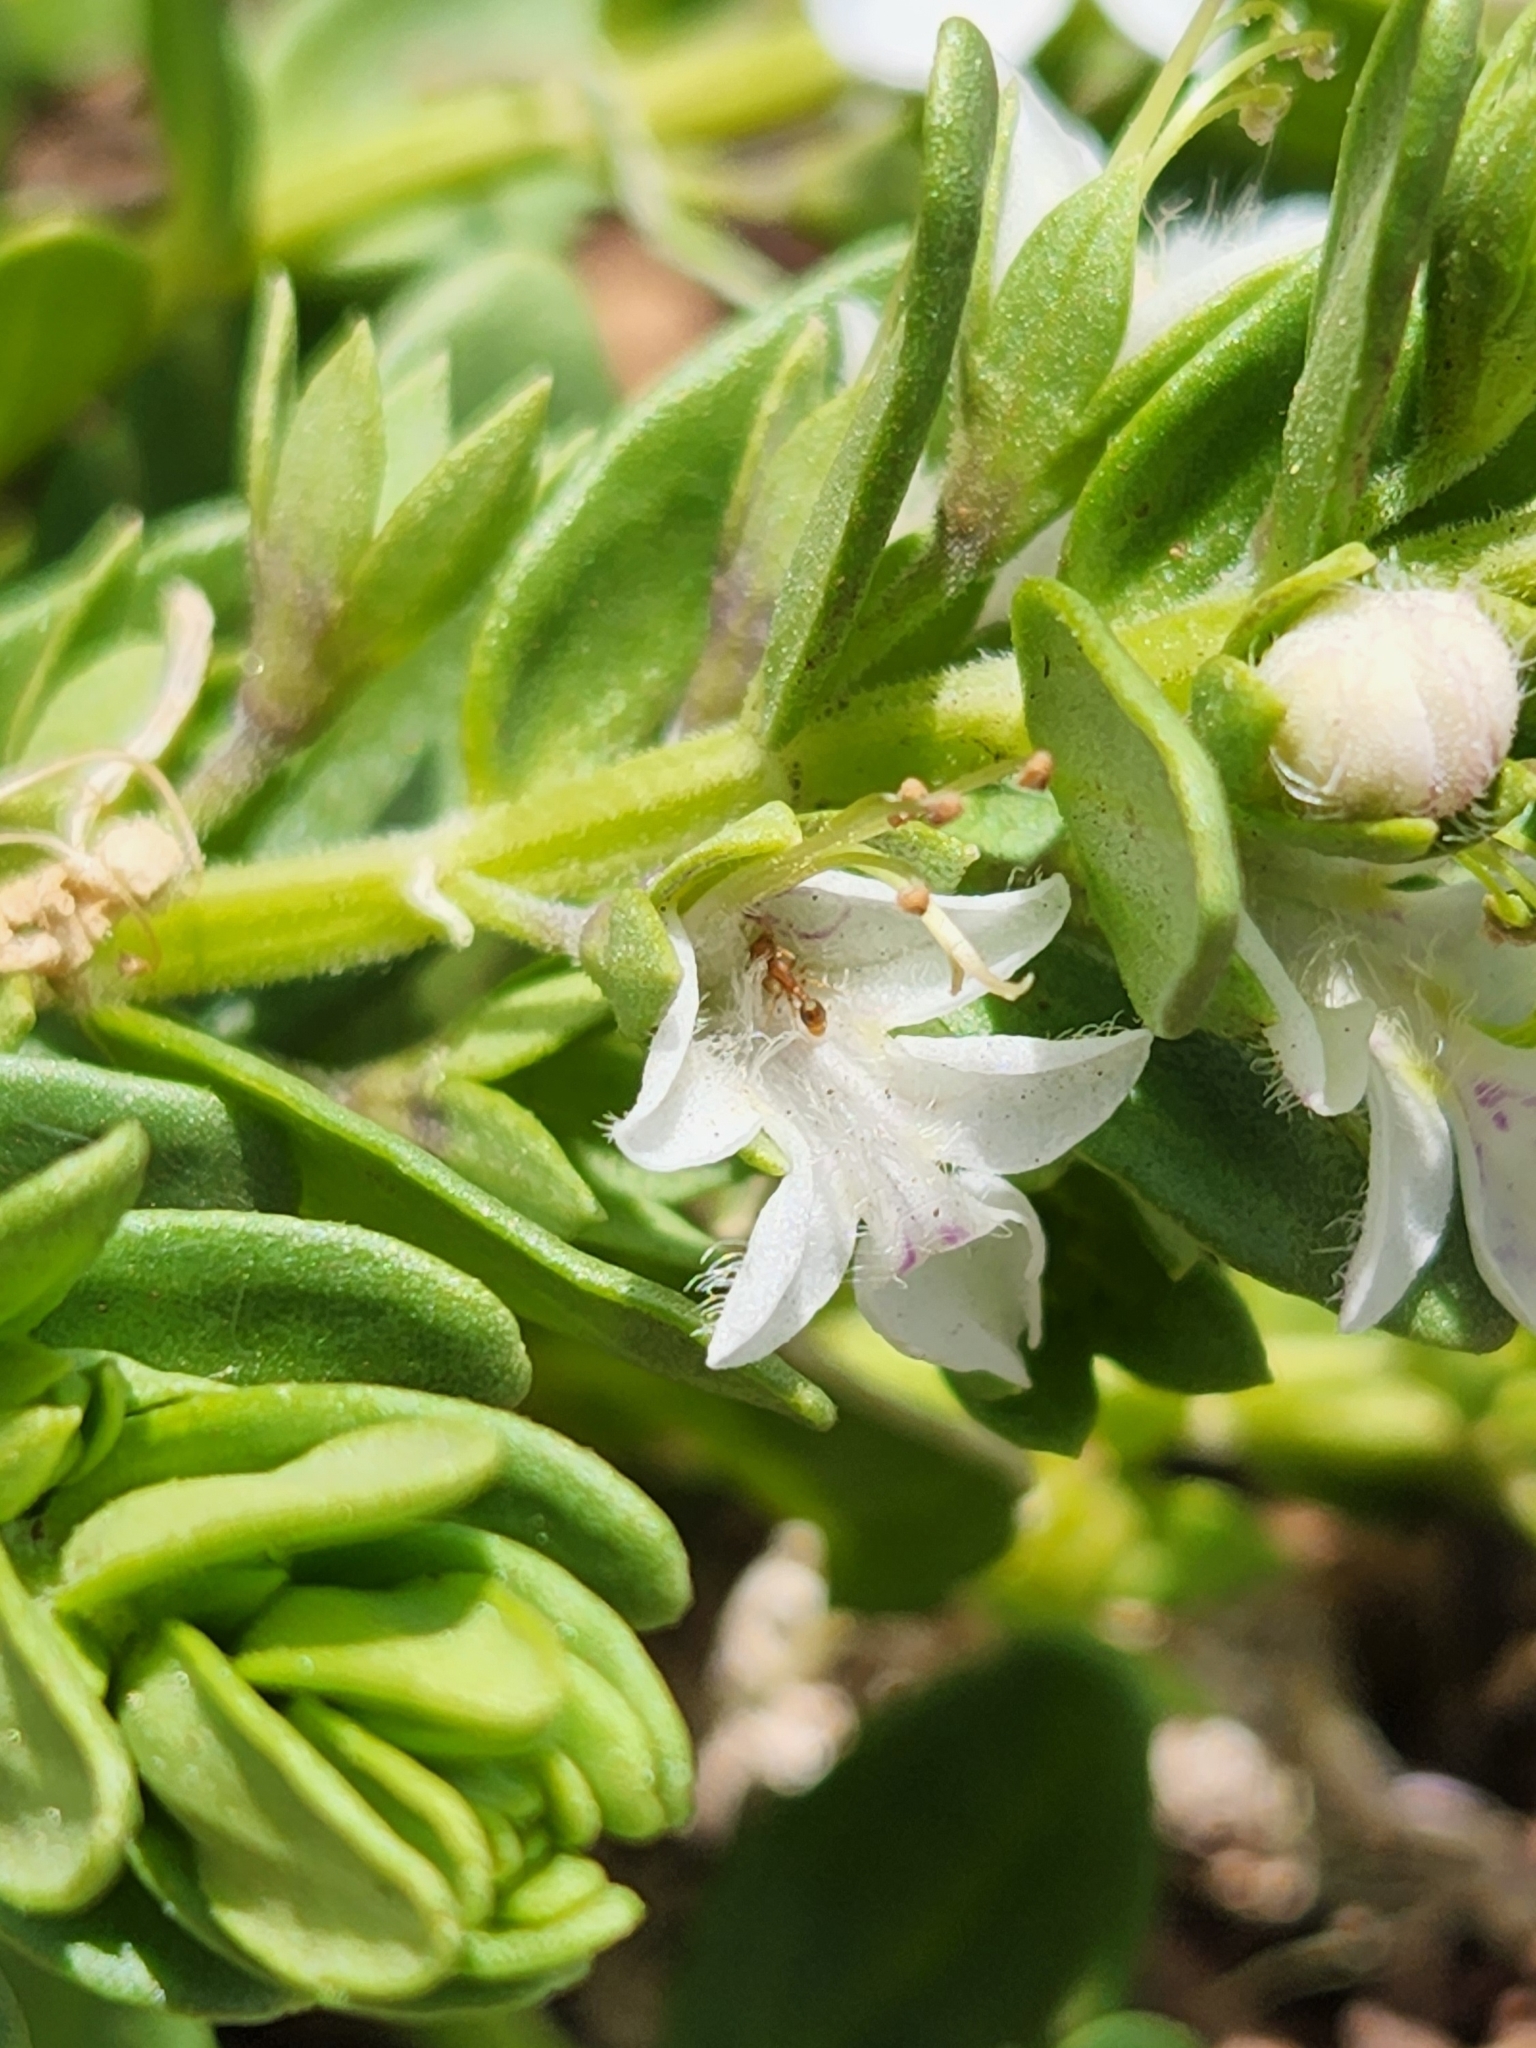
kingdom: Plantae
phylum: Tracheophyta
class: Magnoliopsida
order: Lamiales
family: Lamiaceae
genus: Teucrium
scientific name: Teucrium townsendii
